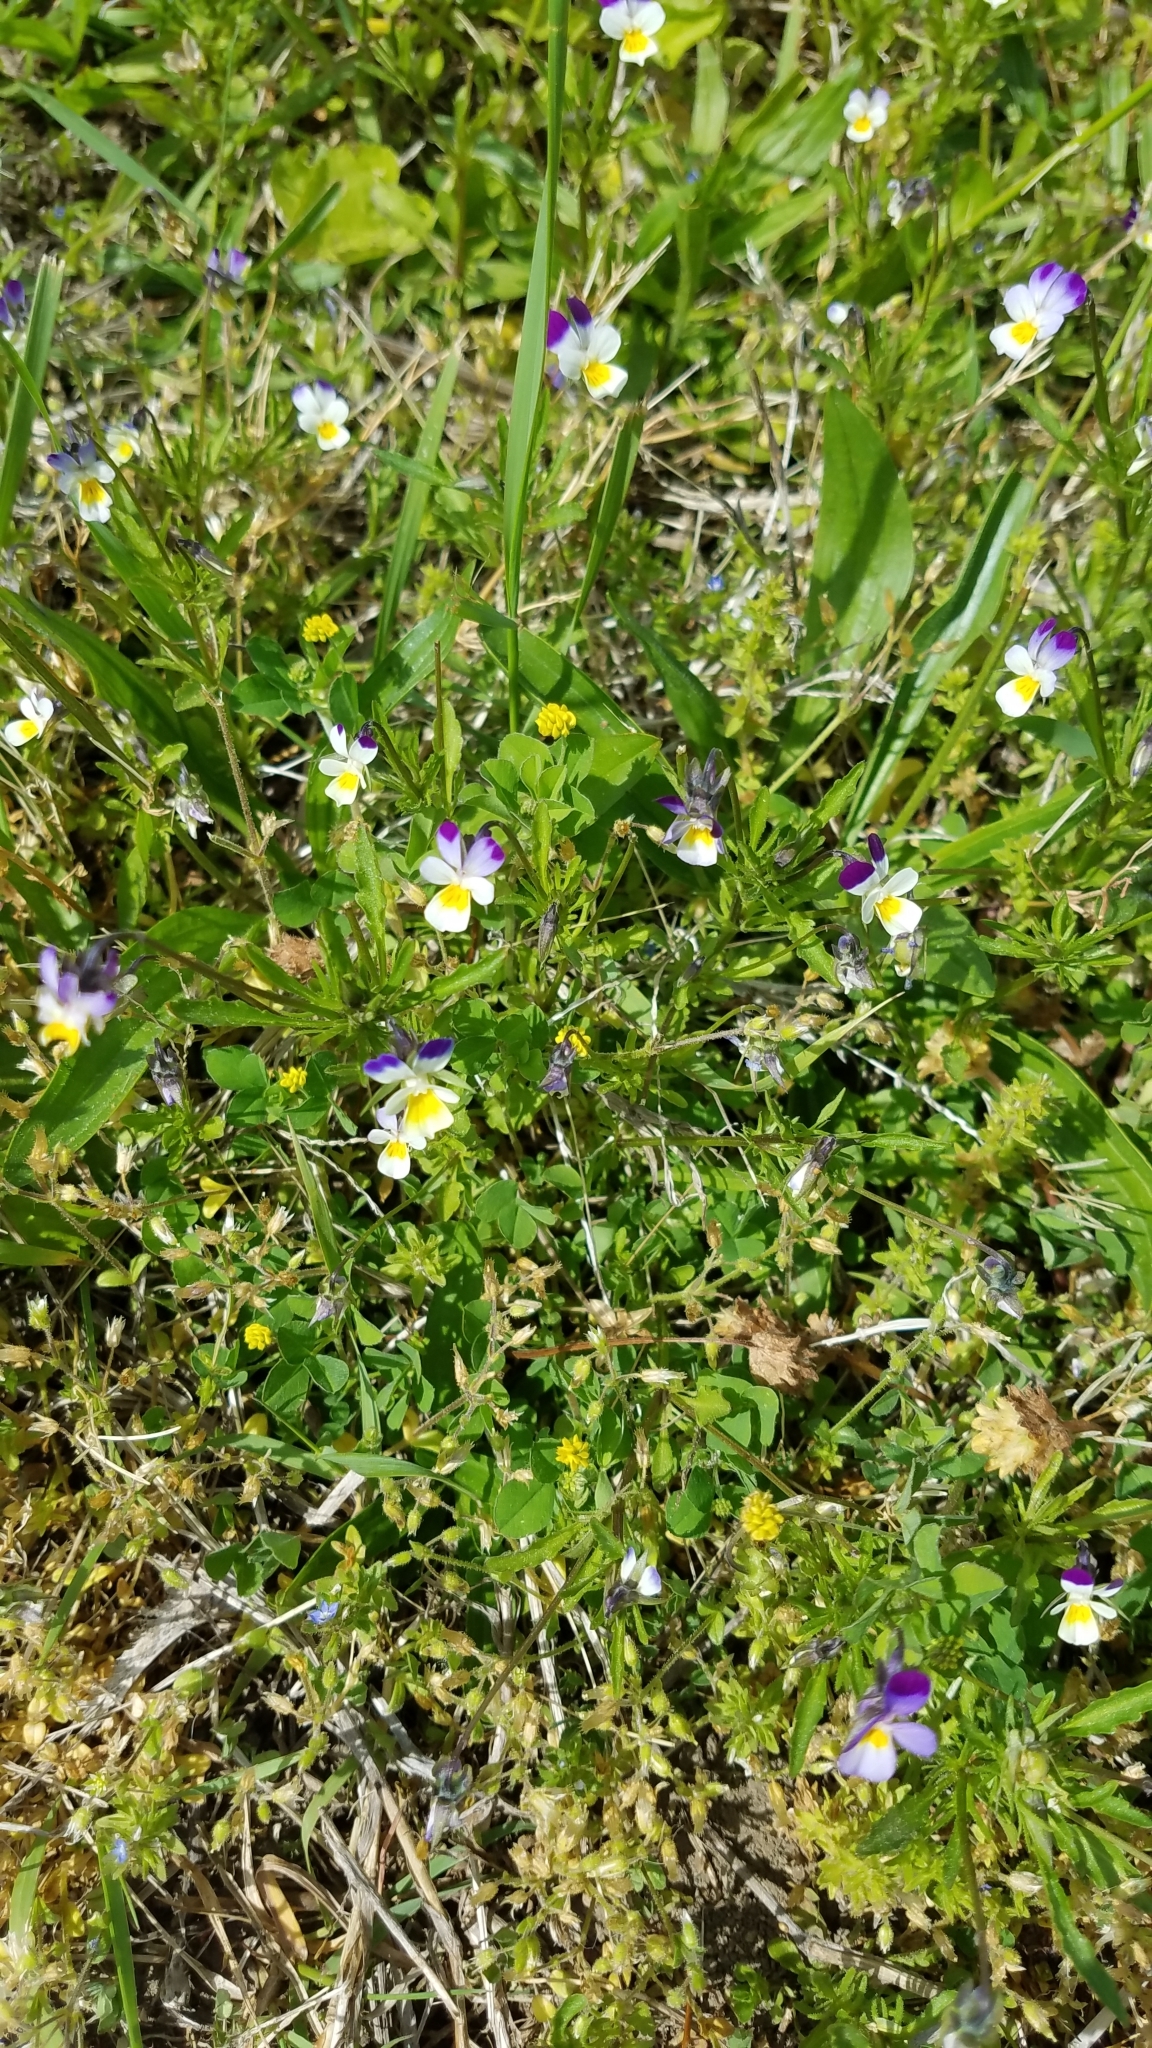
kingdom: Plantae
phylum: Tracheophyta
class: Magnoliopsida
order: Malpighiales
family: Violaceae
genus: Viola
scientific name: Viola arvensis
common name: Field pansy
